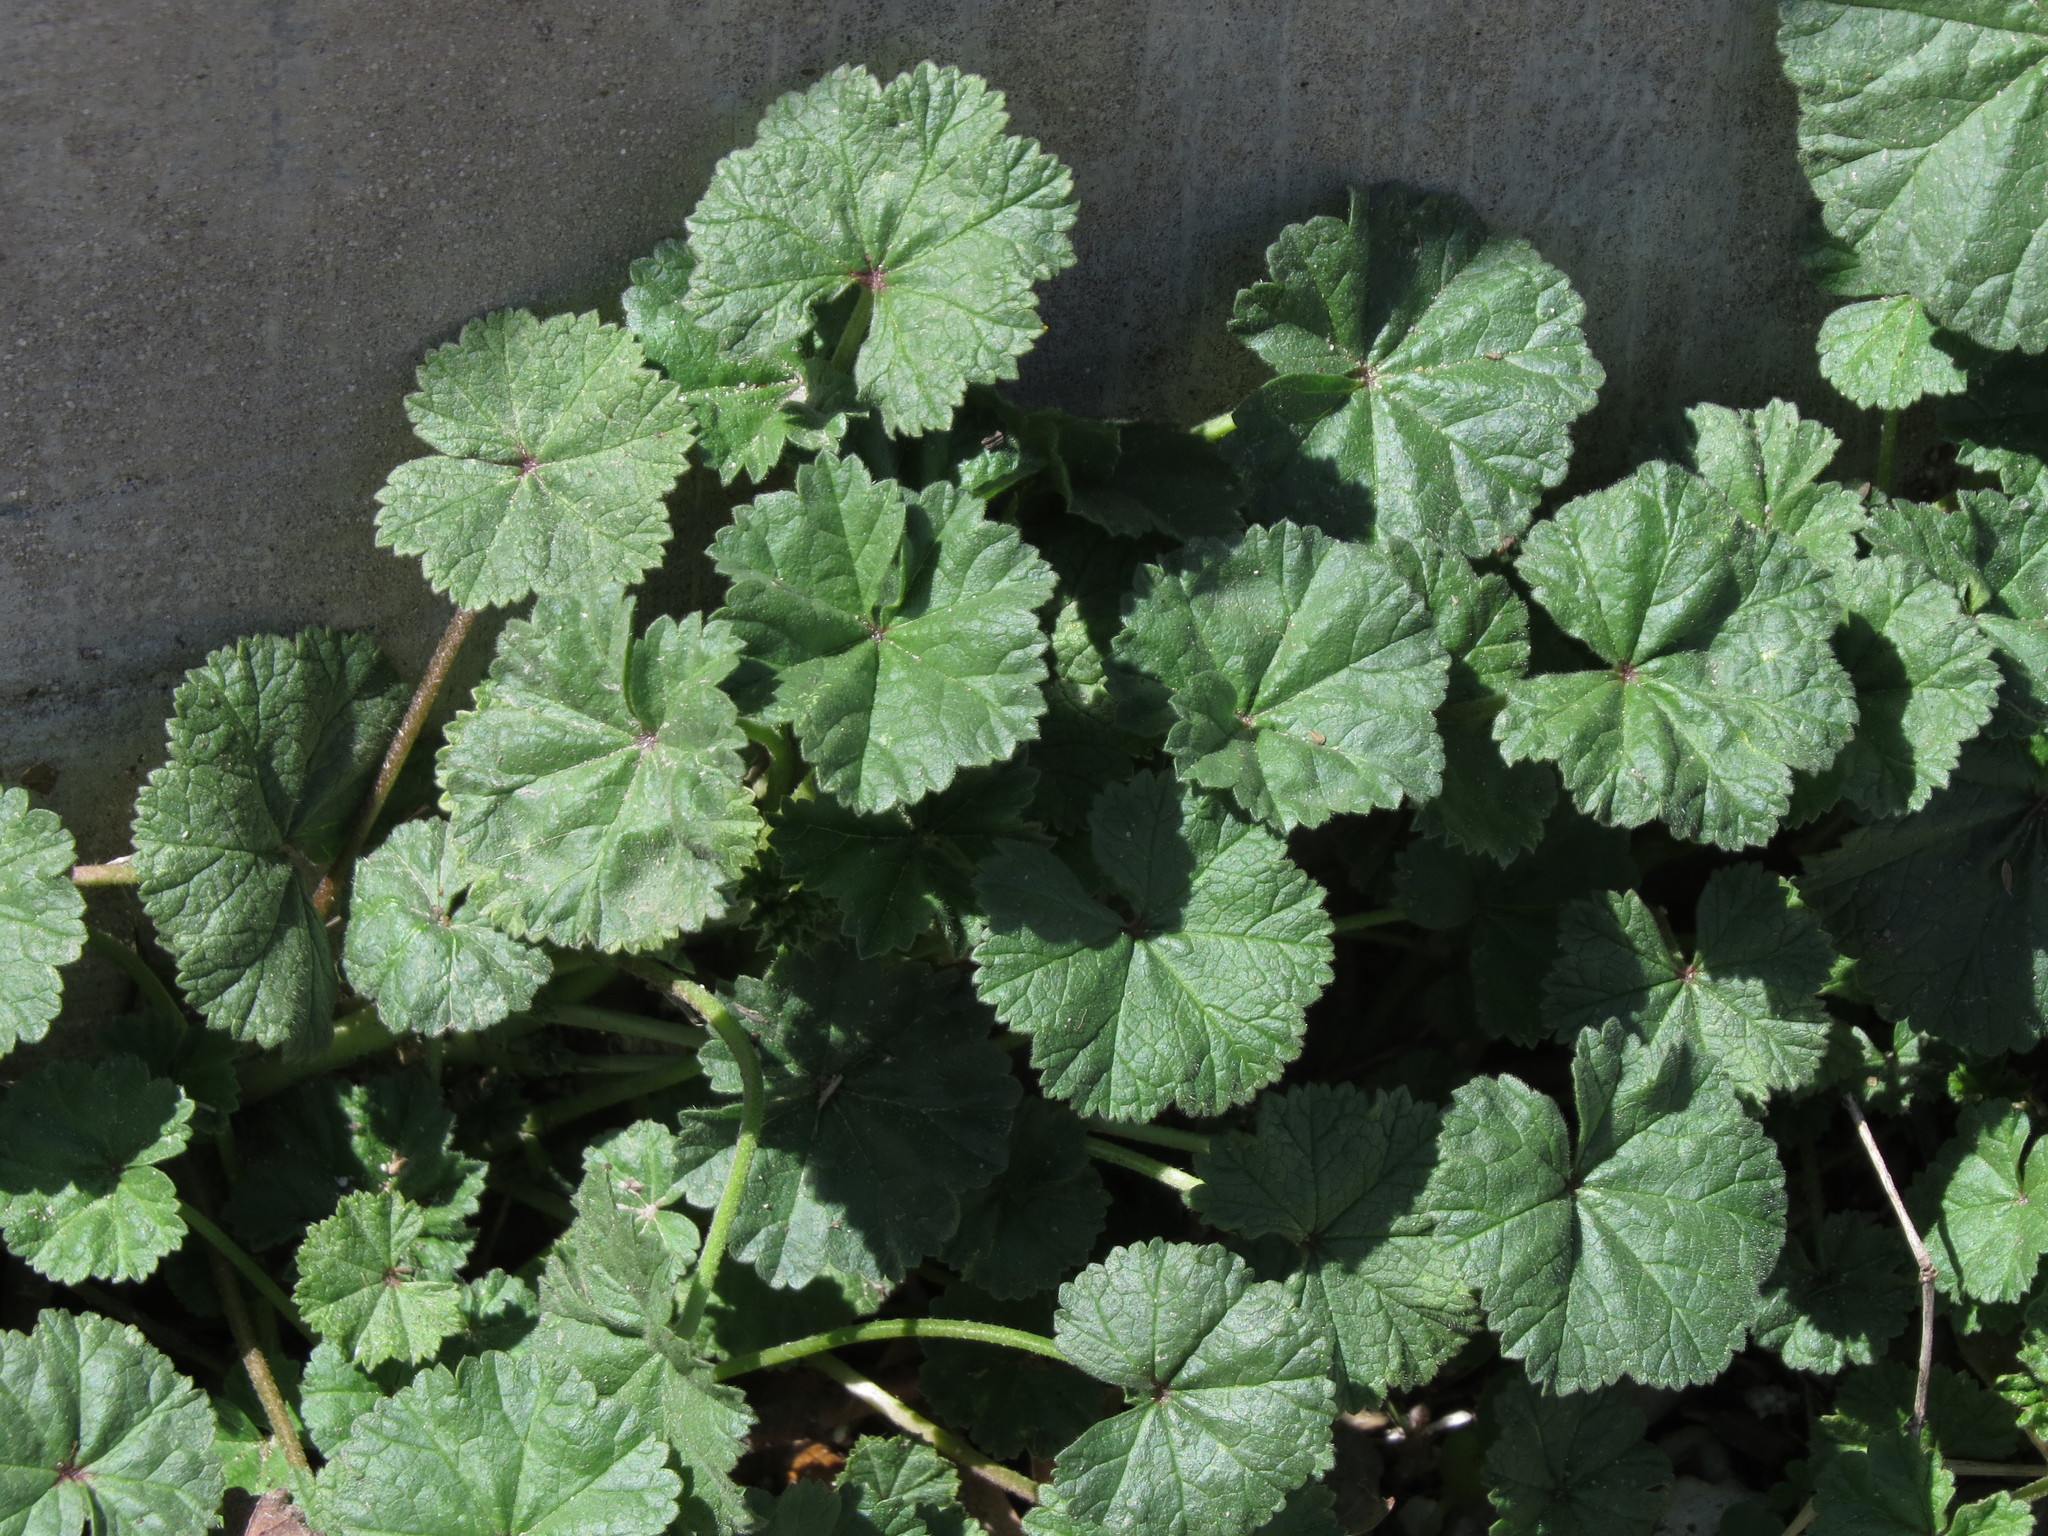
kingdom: Plantae
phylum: Tracheophyta
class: Magnoliopsida
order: Malvales
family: Malvaceae
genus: Malva
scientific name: Malva neglecta
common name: Common mallow
